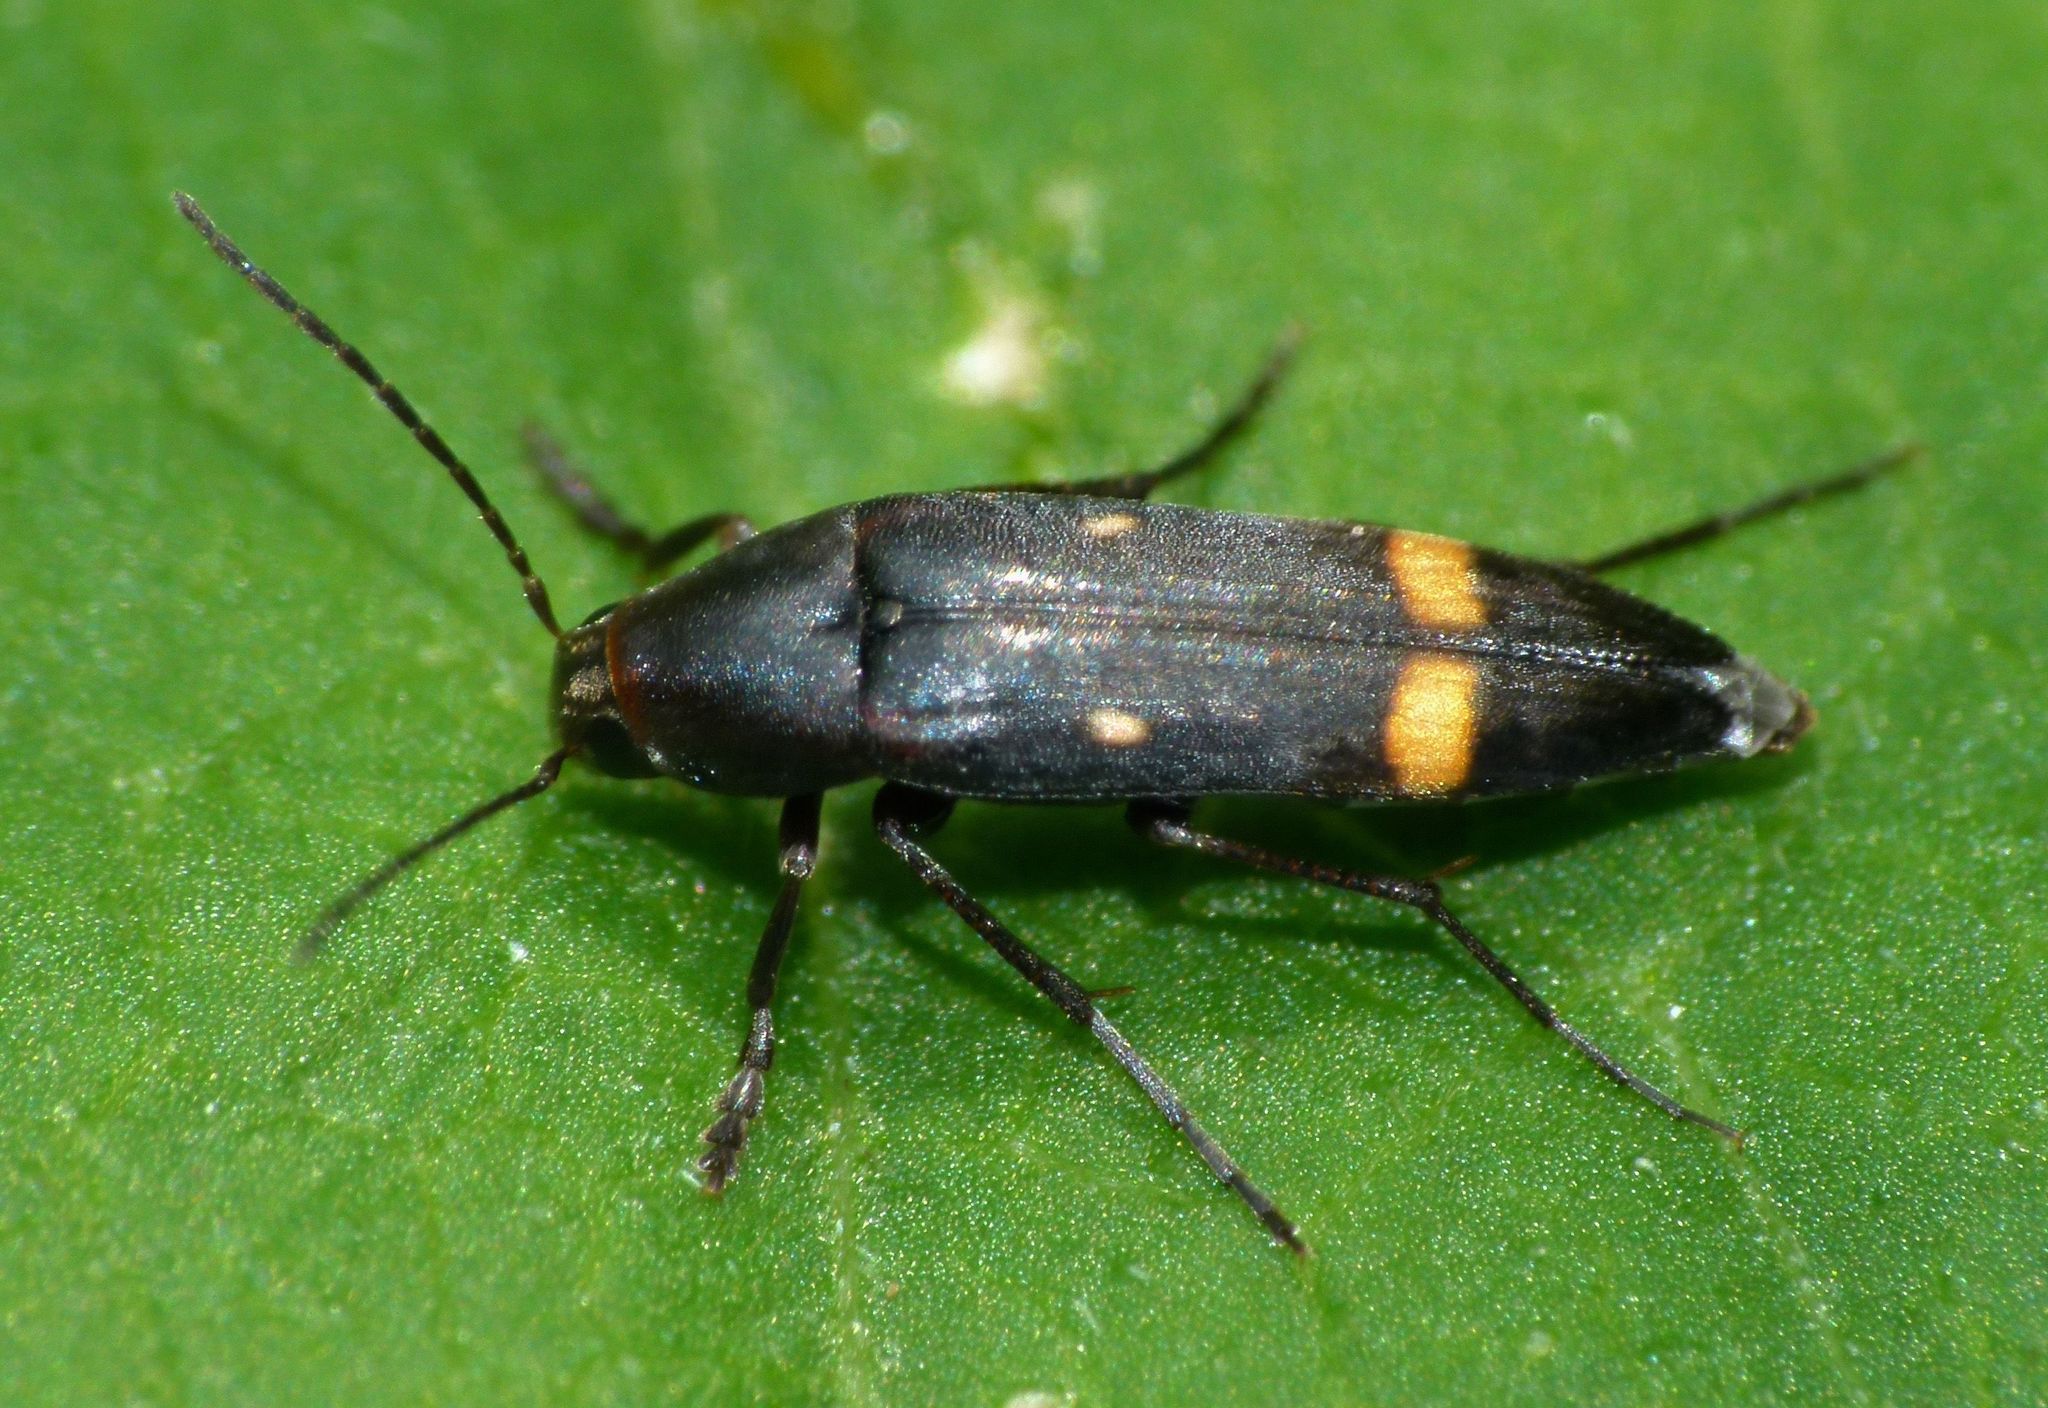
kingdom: Animalia
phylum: Arthropoda
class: Insecta
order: Coleoptera
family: Melandryidae
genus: Ctenoplectron
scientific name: Ctenoplectron
